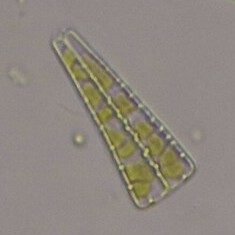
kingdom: Chromista
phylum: Ochrophyta
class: Bacillariophyceae
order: Tabellariales
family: Tabellariaceae
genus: Meridion
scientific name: Meridion
